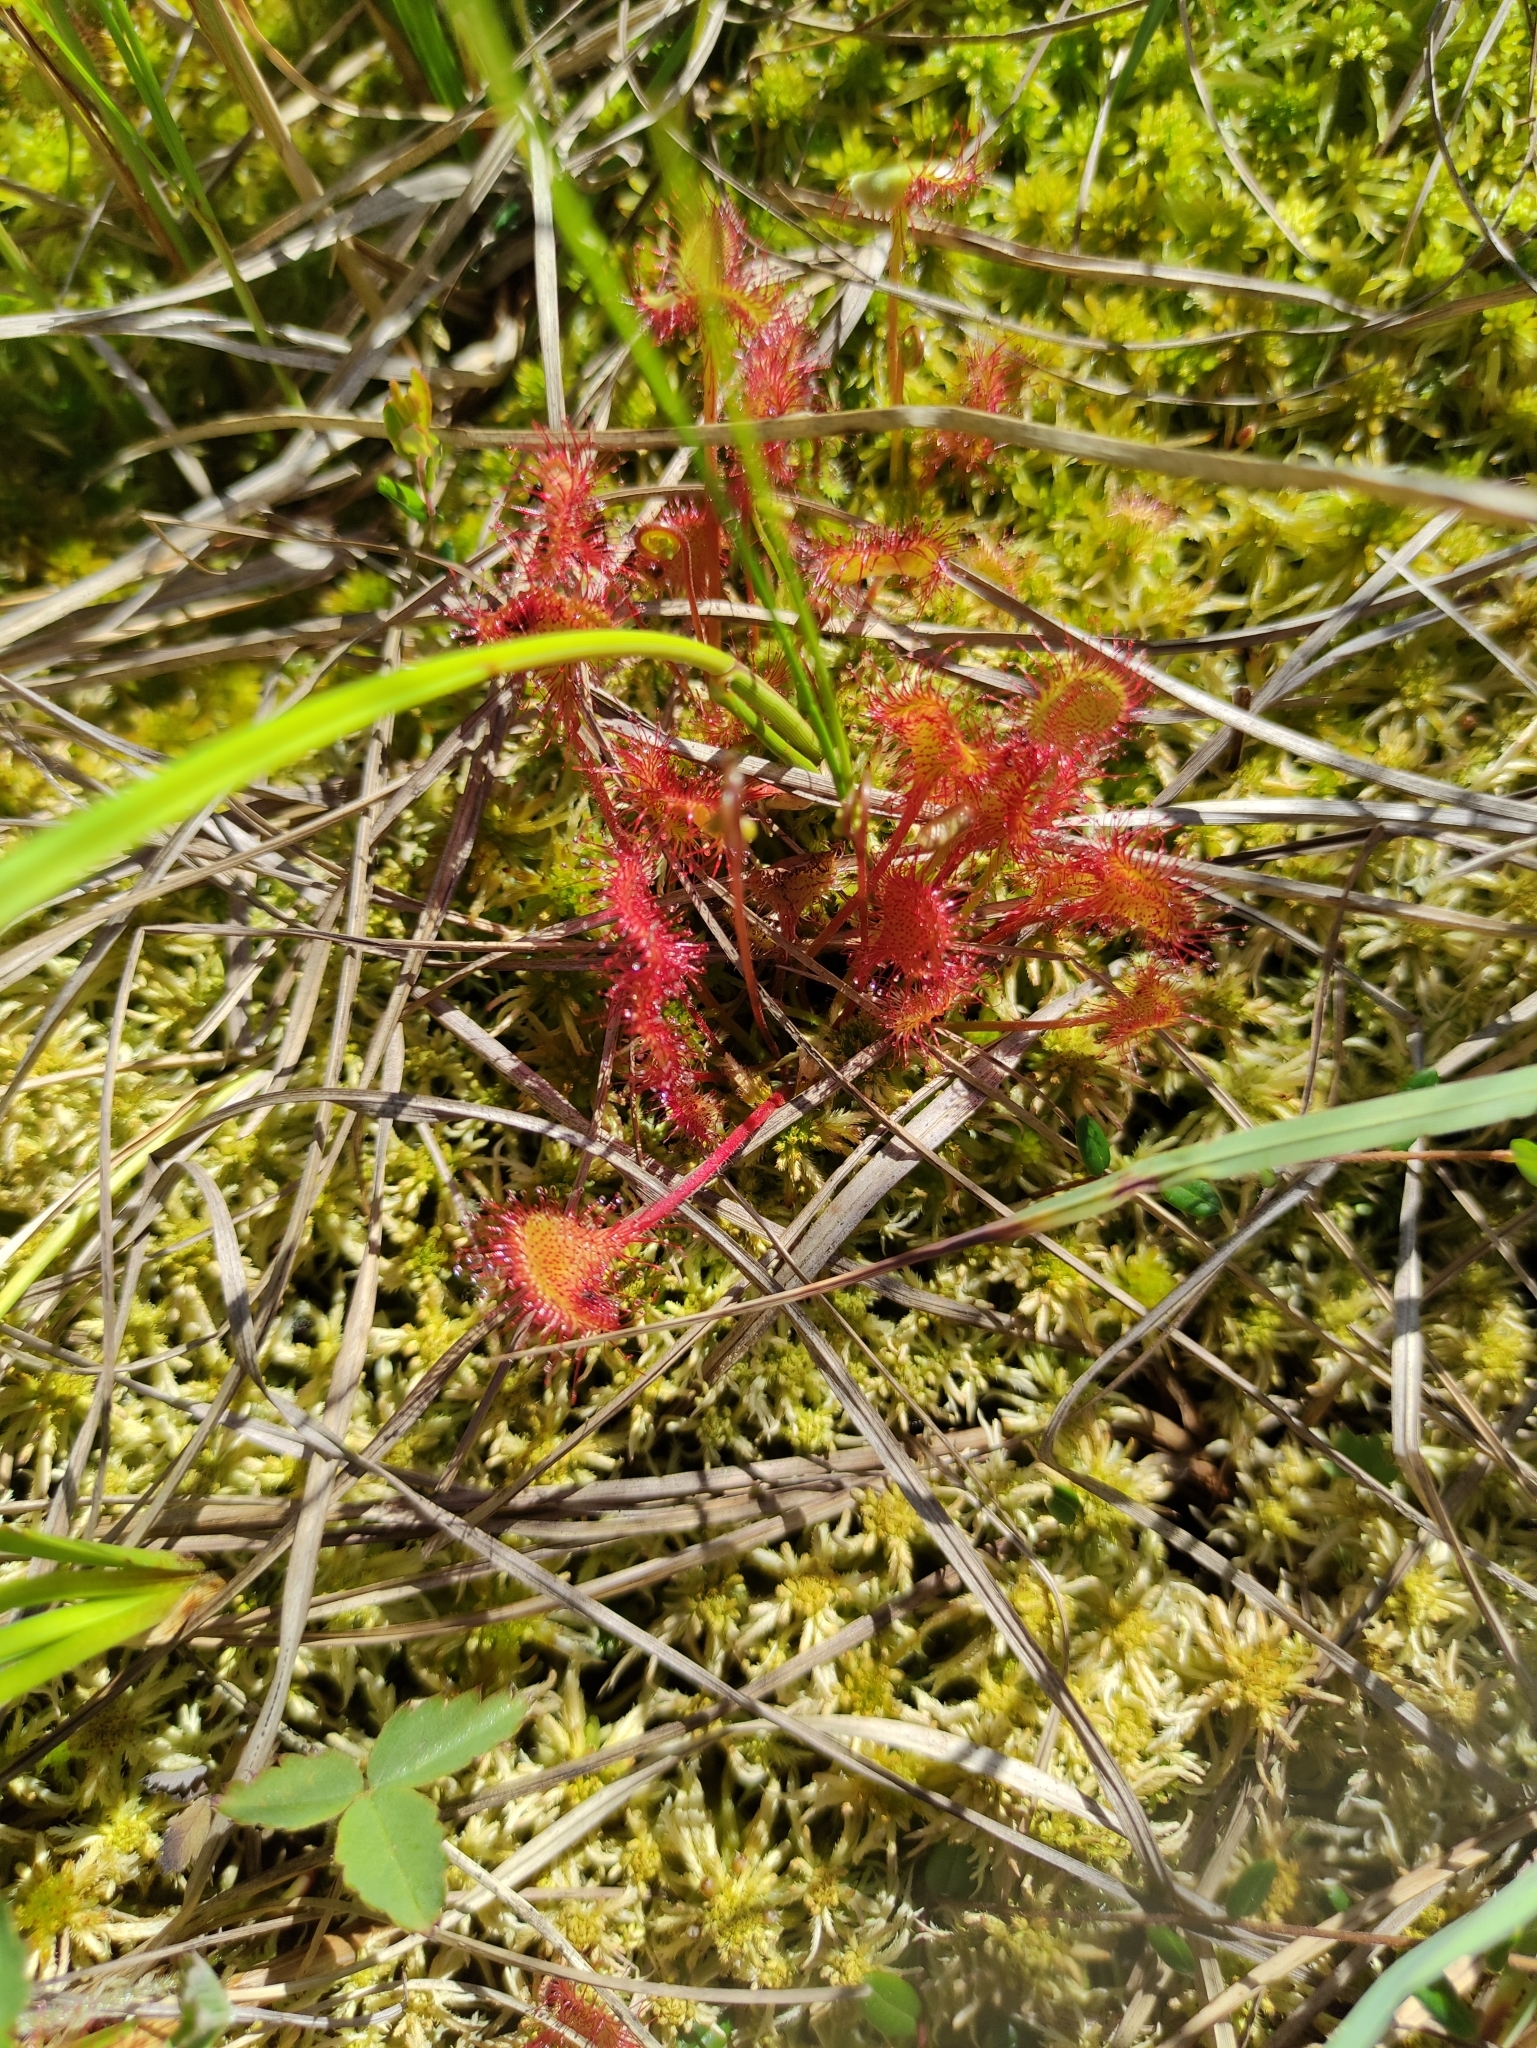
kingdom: Plantae
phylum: Tracheophyta
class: Magnoliopsida
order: Caryophyllales
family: Droseraceae
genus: Drosera
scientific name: Drosera rotundifolia
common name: Round-leaved sundew
